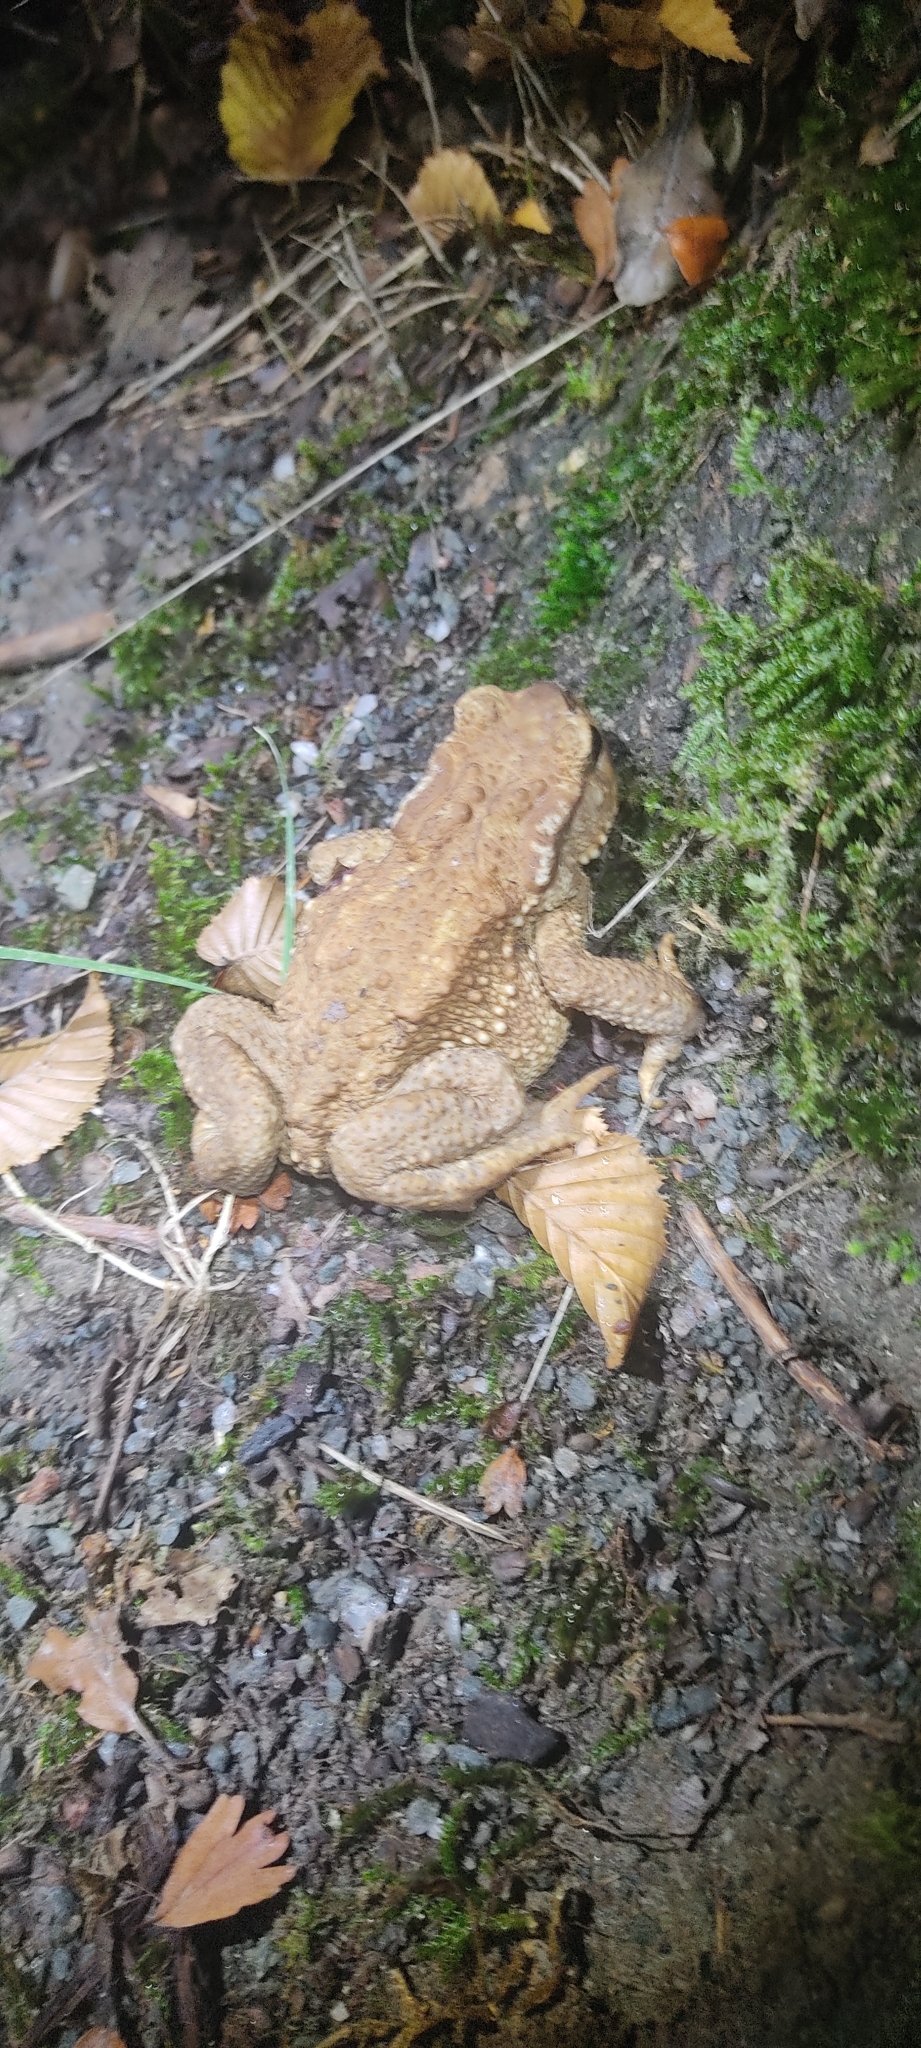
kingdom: Animalia
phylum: Chordata
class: Amphibia
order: Anura
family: Bufonidae
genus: Bufo
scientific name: Bufo spinosus
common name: Western common toad
